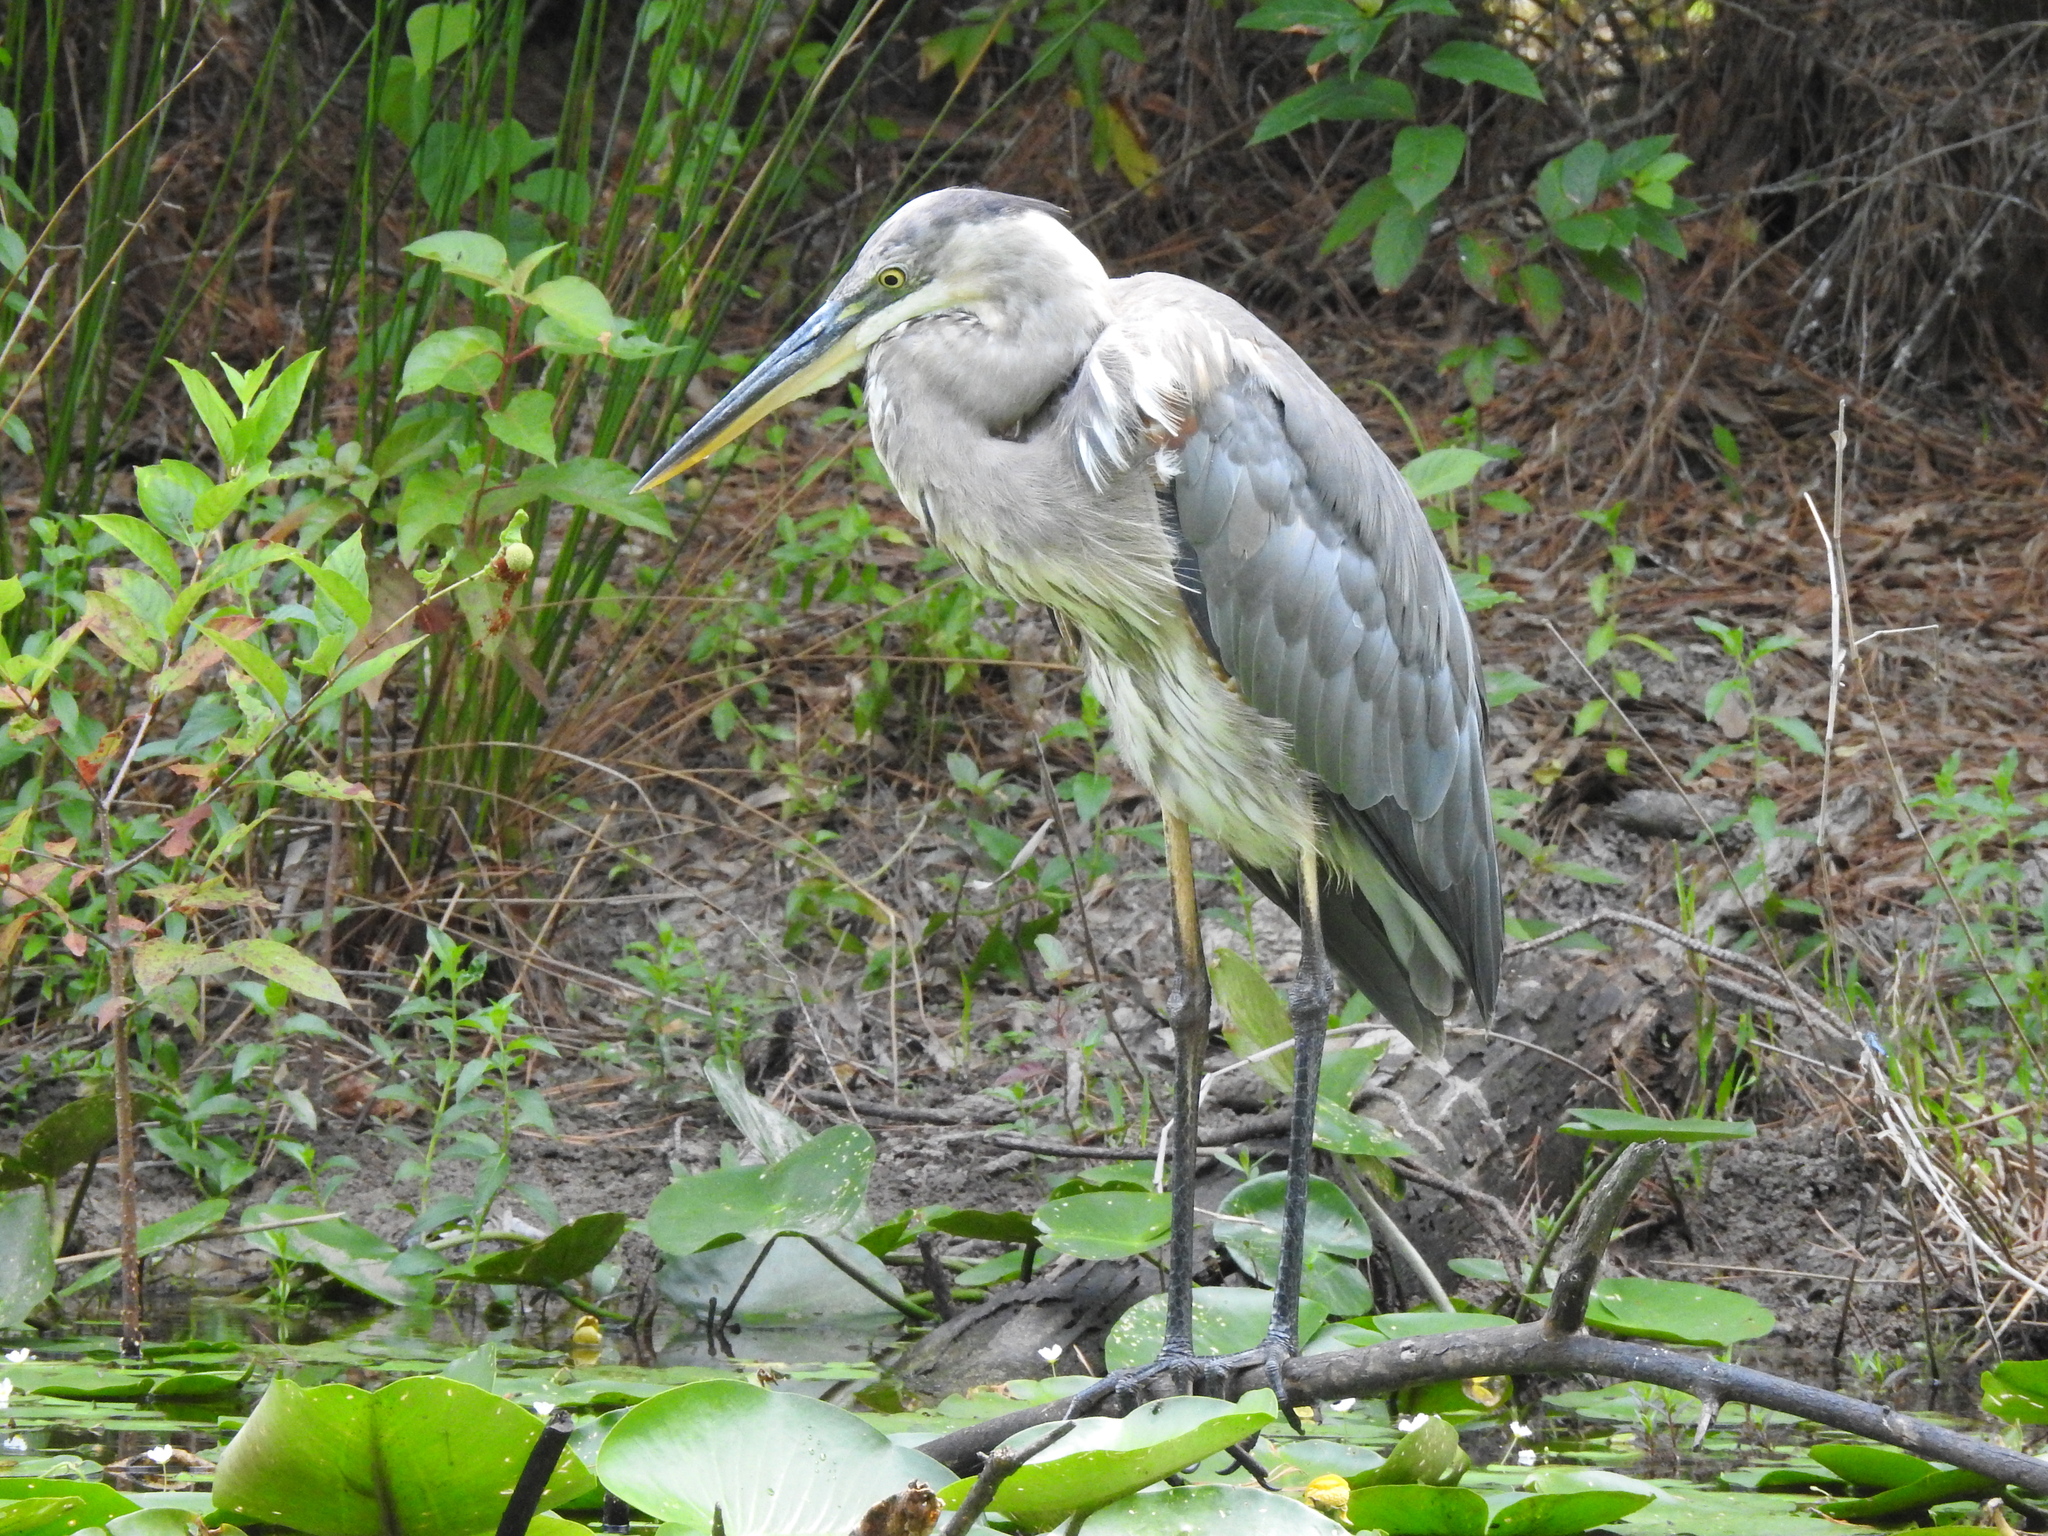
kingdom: Animalia
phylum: Chordata
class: Aves
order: Pelecaniformes
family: Ardeidae
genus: Ardea
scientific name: Ardea herodias
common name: Great blue heron
